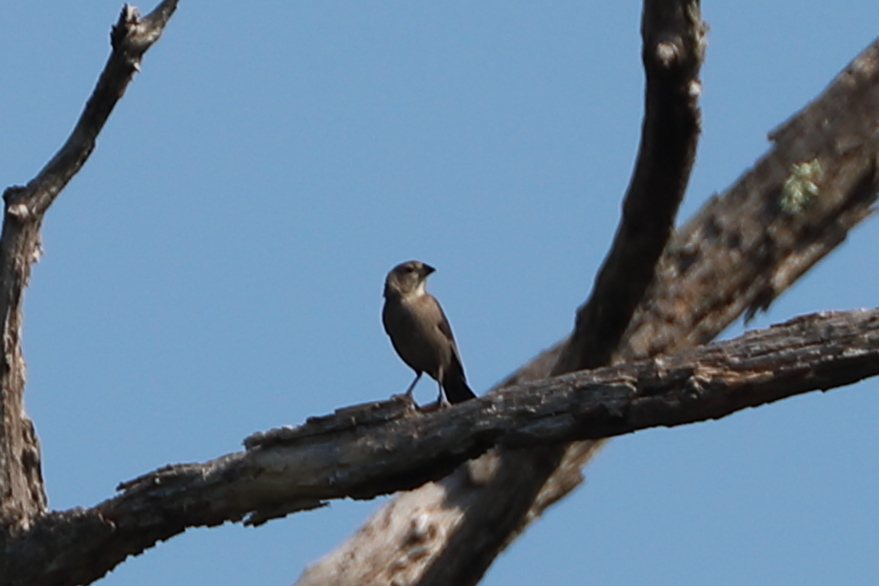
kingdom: Animalia
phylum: Chordata
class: Aves
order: Passeriformes
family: Icteridae
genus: Molothrus
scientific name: Molothrus ater
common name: Brown-headed cowbird
